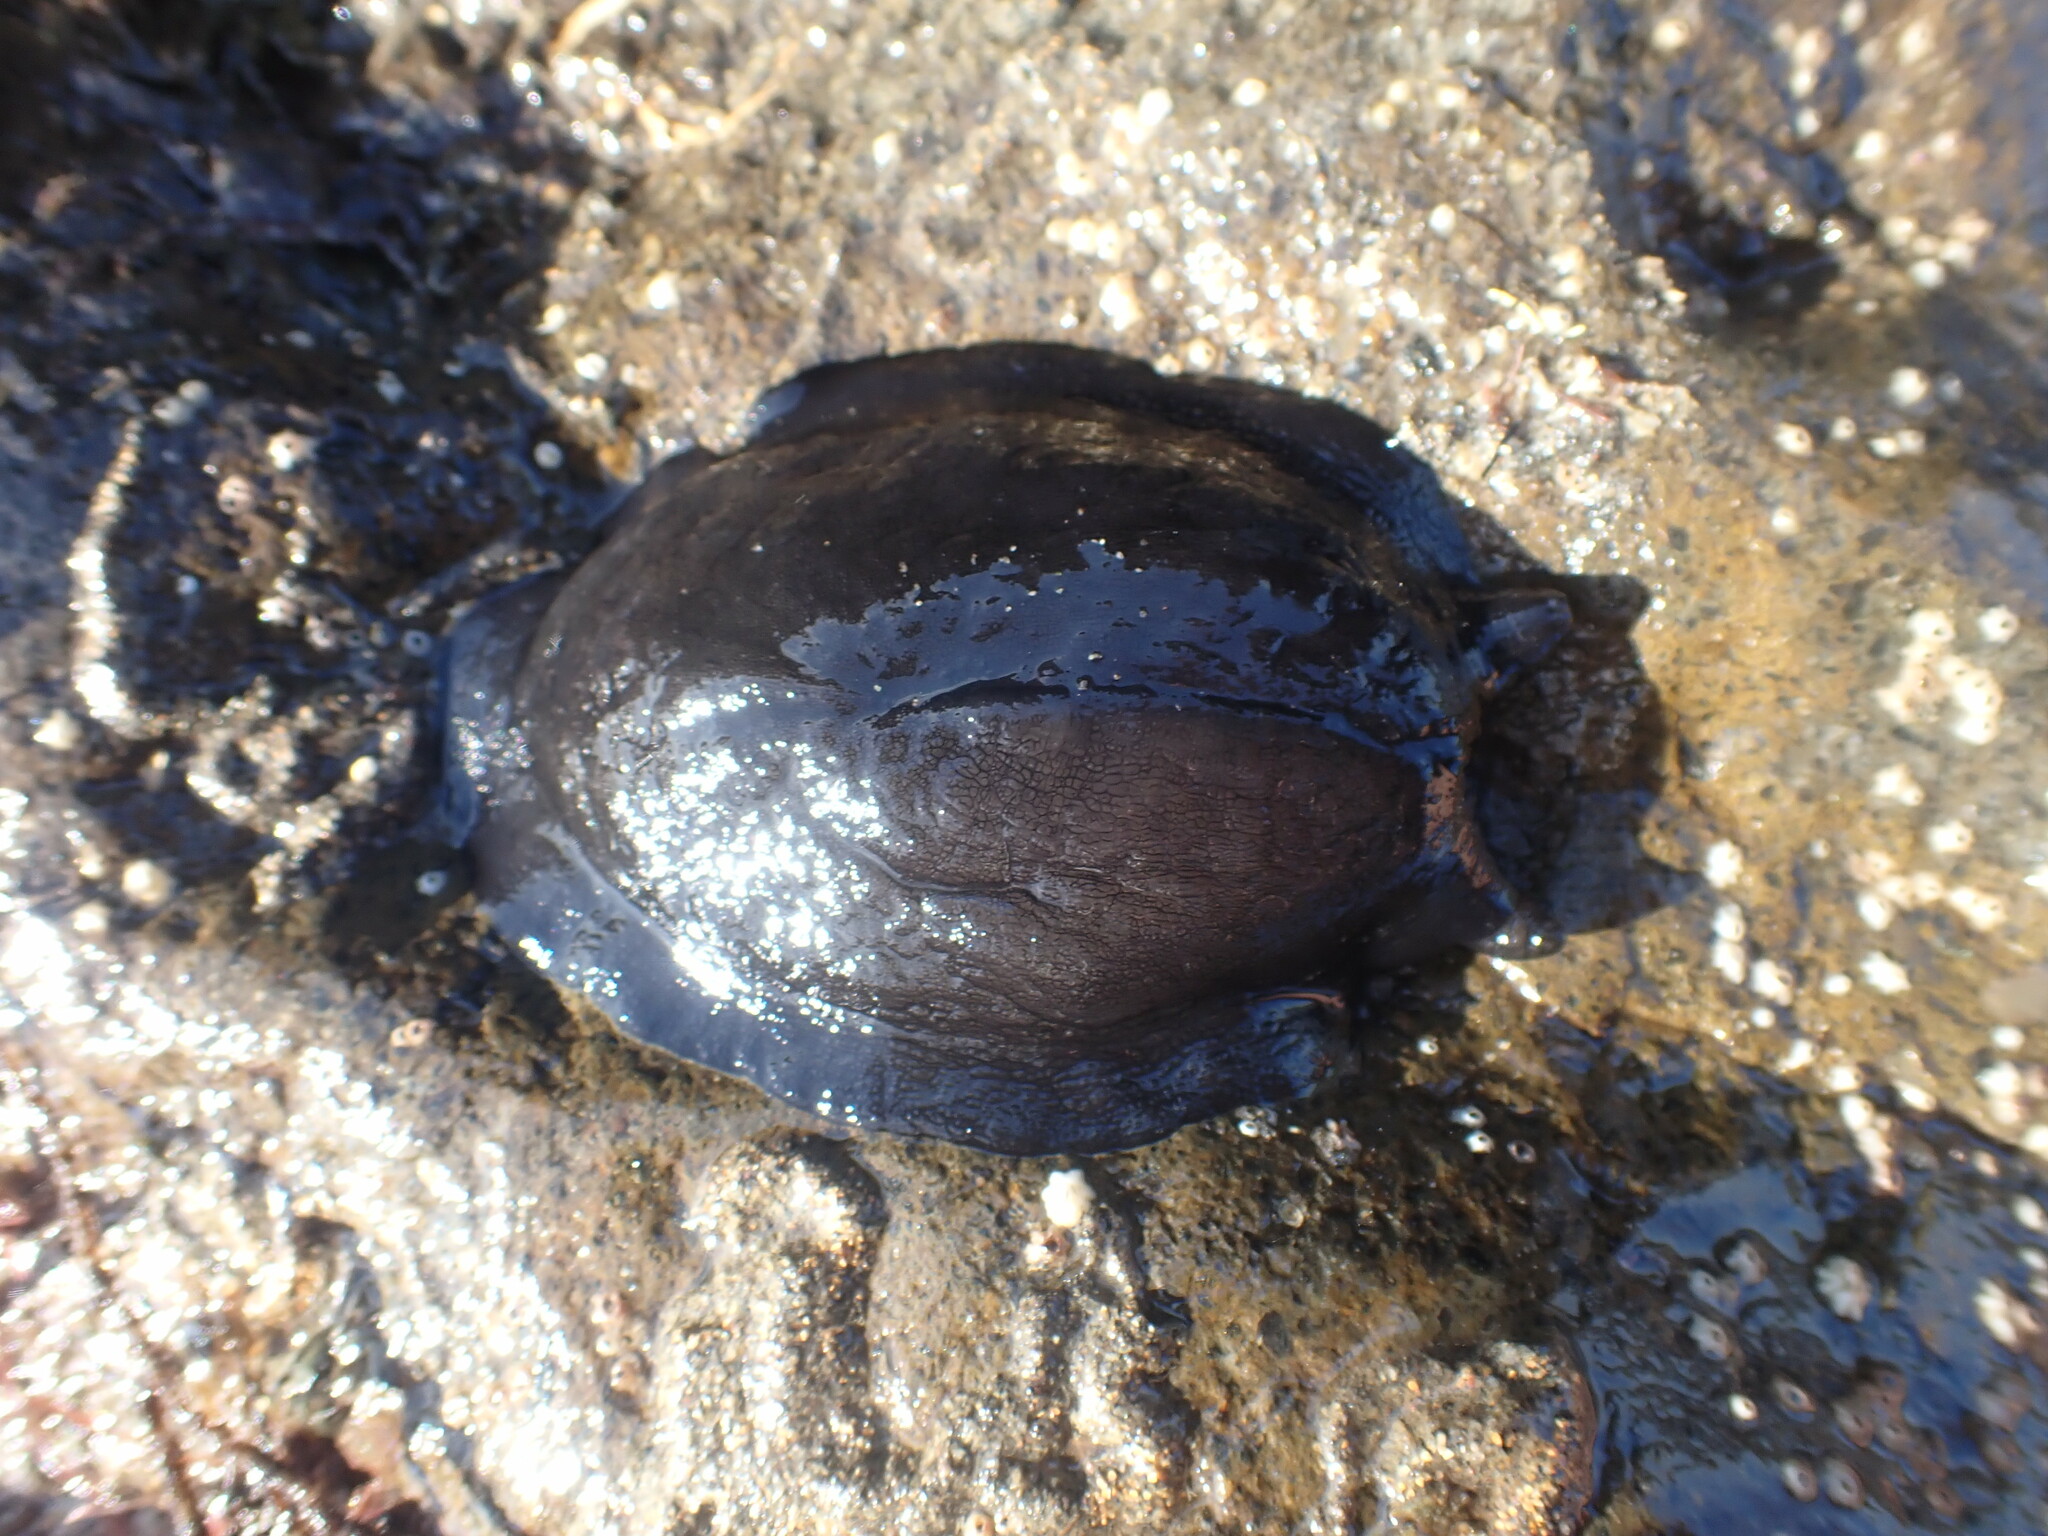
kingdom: Animalia
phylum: Mollusca
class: Gastropoda
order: Lepetellida
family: Fissurellidae
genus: Scutus
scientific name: Scutus breviculus
